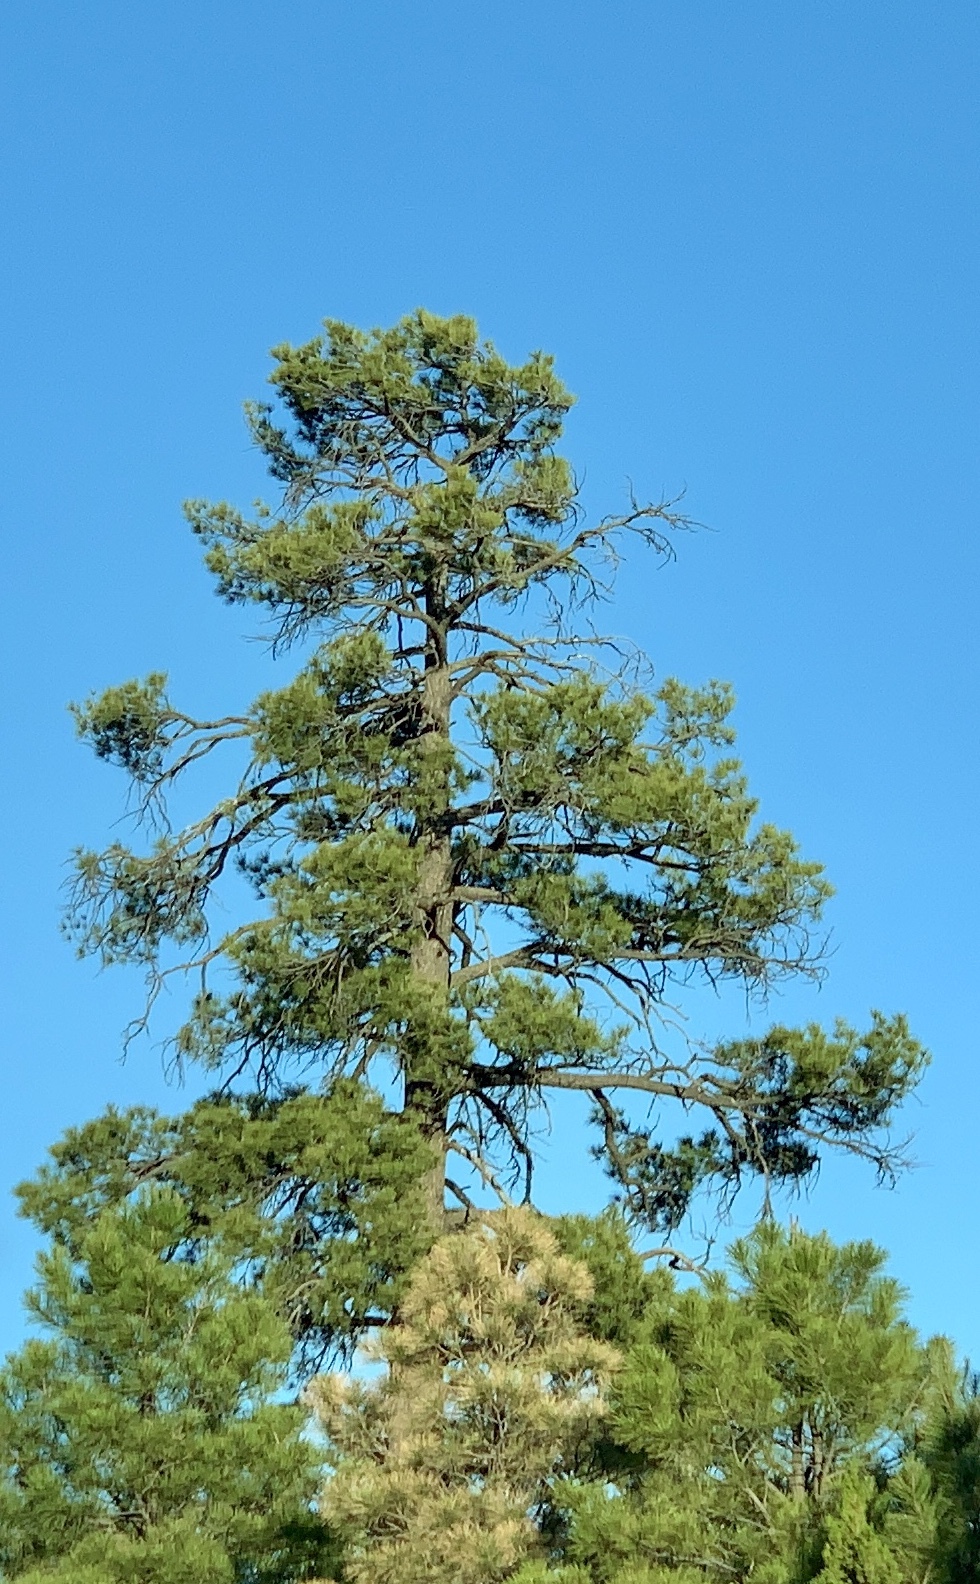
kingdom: Plantae
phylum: Tracheophyta
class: Pinopsida
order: Pinales
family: Pinaceae
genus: Pinus
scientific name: Pinus ponderosa
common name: Western yellow-pine
